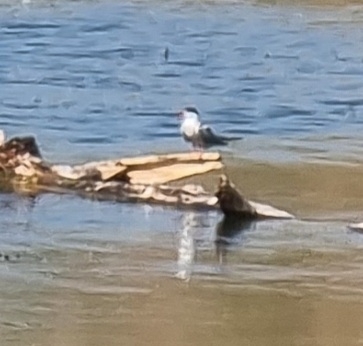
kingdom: Animalia
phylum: Chordata
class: Aves
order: Charadriiformes
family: Laridae
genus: Sterna
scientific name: Sterna hirundo
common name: Common tern
